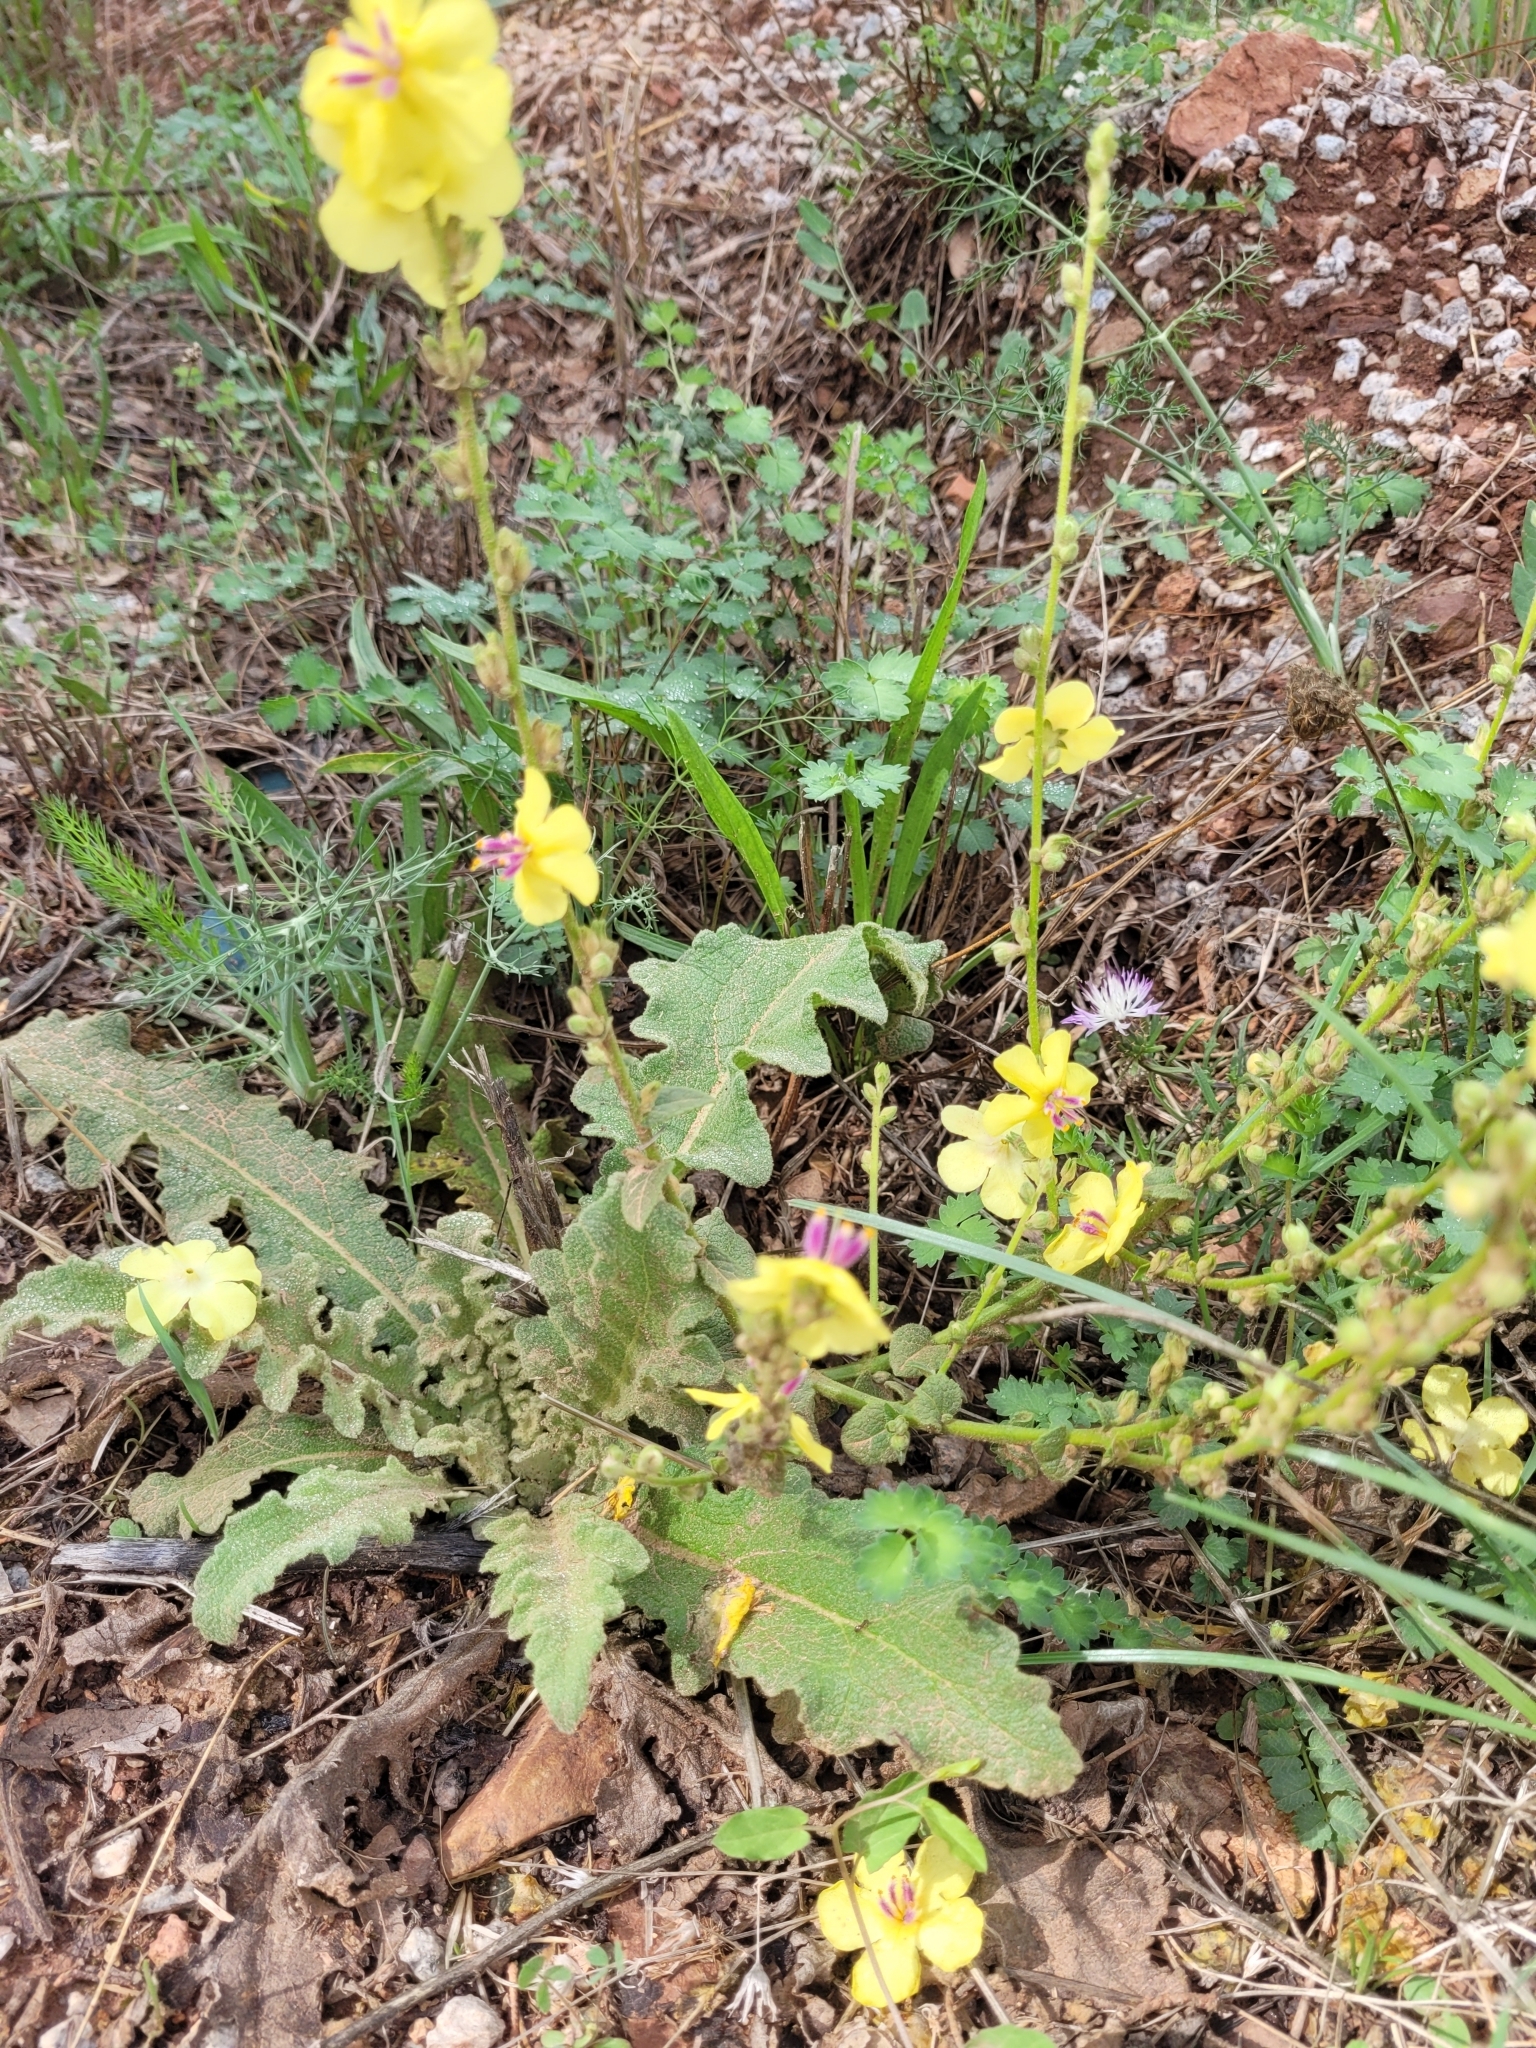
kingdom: Plantae
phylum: Tracheophyta
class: Magnoliopsida
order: Lamiales
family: Scrophulariaceae
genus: Verbascum
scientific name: Verbascum sinuatum
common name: Wavyleaf mullein
